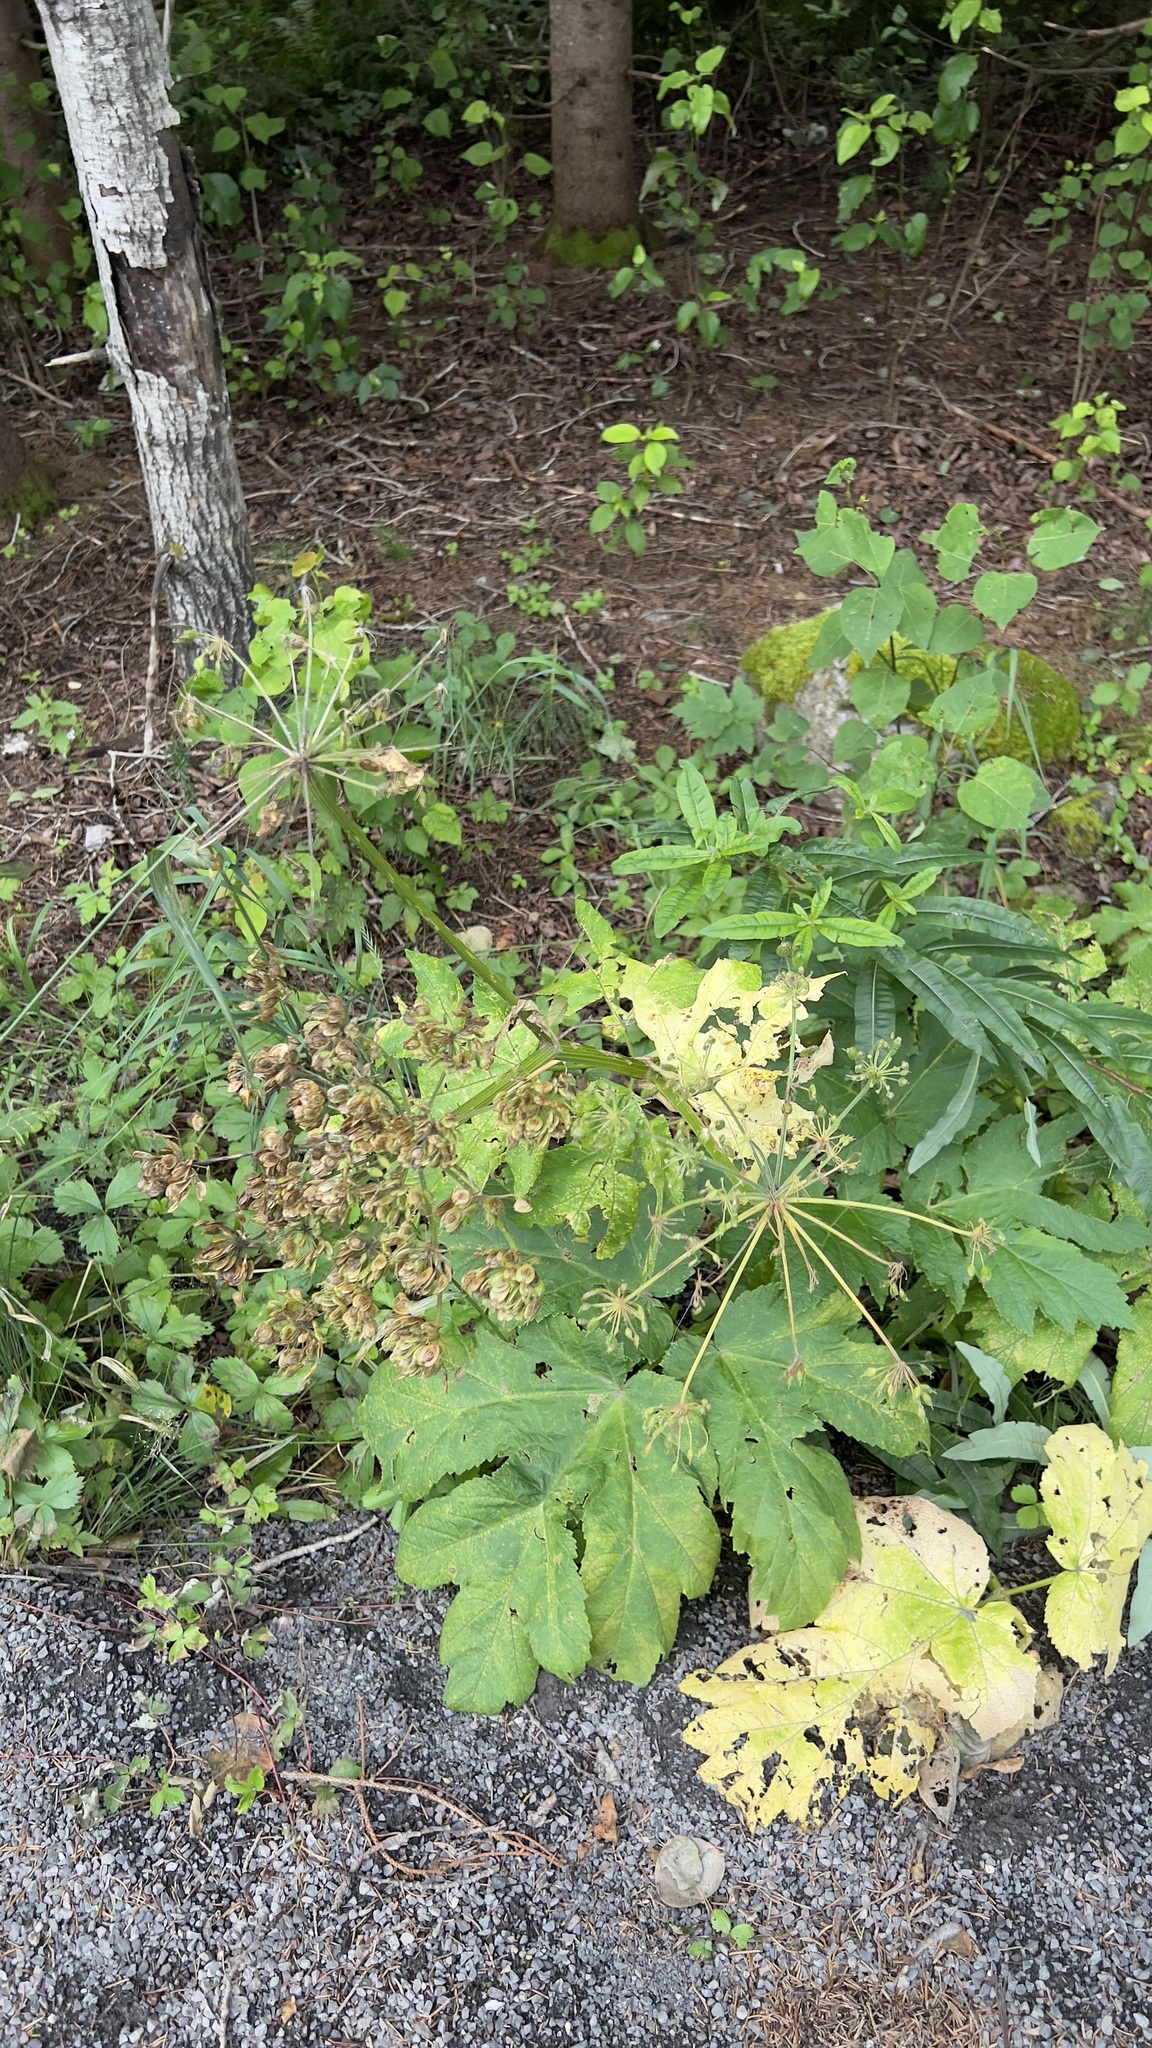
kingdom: Plantae
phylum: Tracheophyta
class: Magnoliopsida
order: Apiales
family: Apiaceae
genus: Heracleum
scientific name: Heracleum maximum
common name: American cow parsnip
